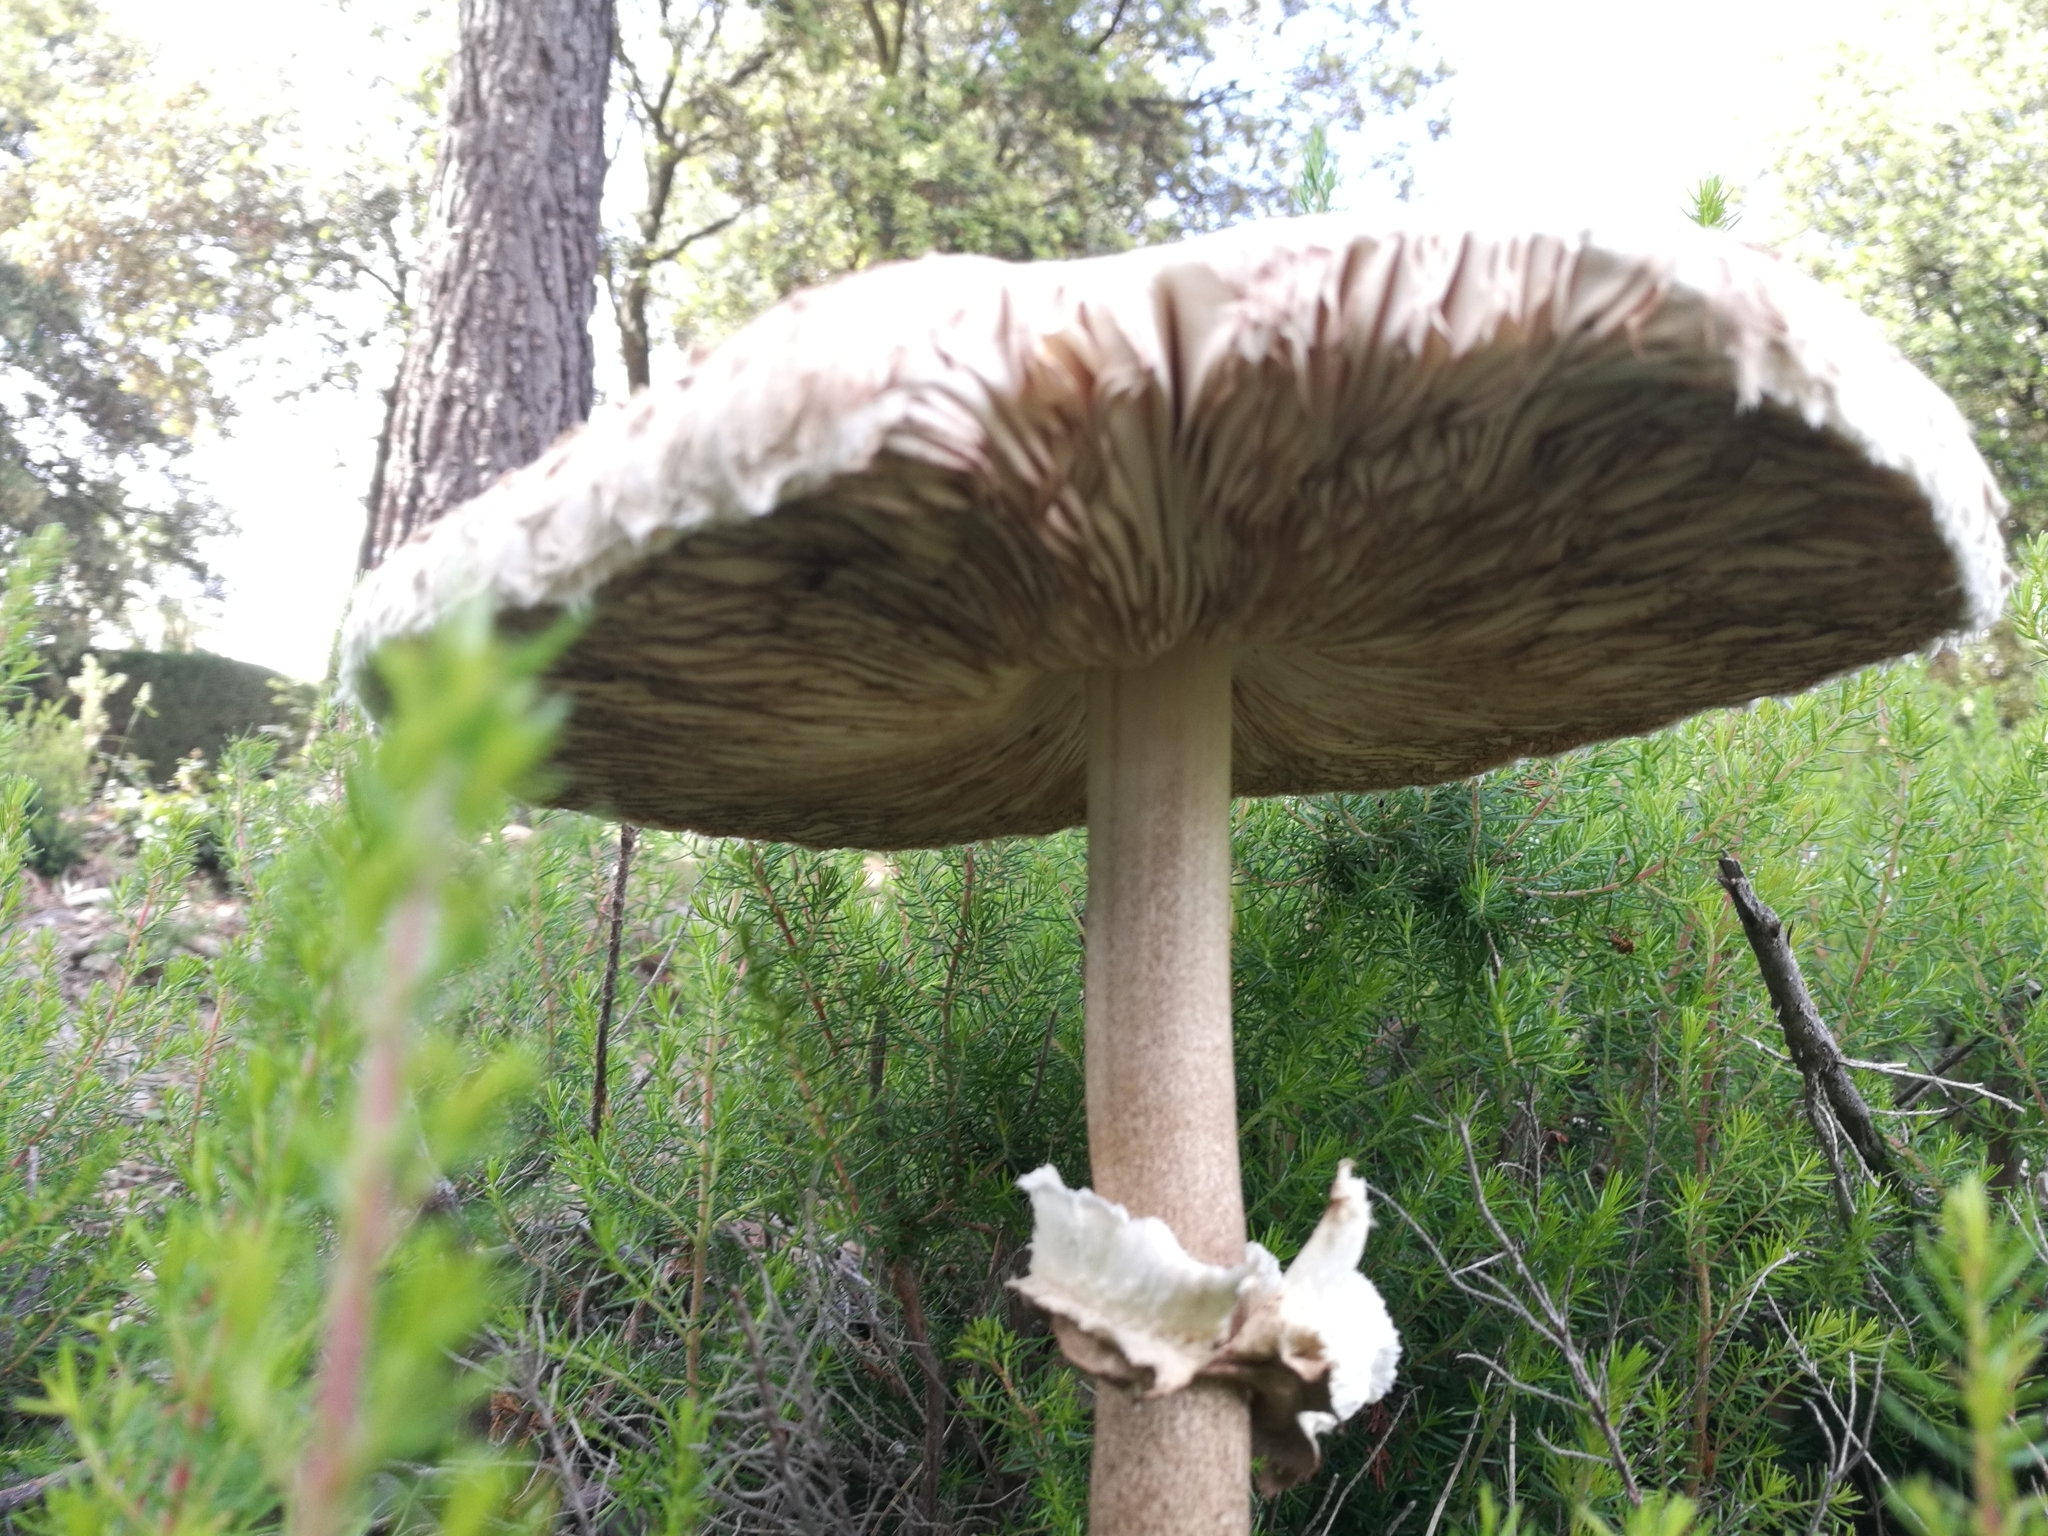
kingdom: Fungi
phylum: Basidiomycota
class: Agaricomycetes
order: Agaricales
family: Agaricaceae
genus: Macrolepiota
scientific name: Macrolepiota procera
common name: Parasol
